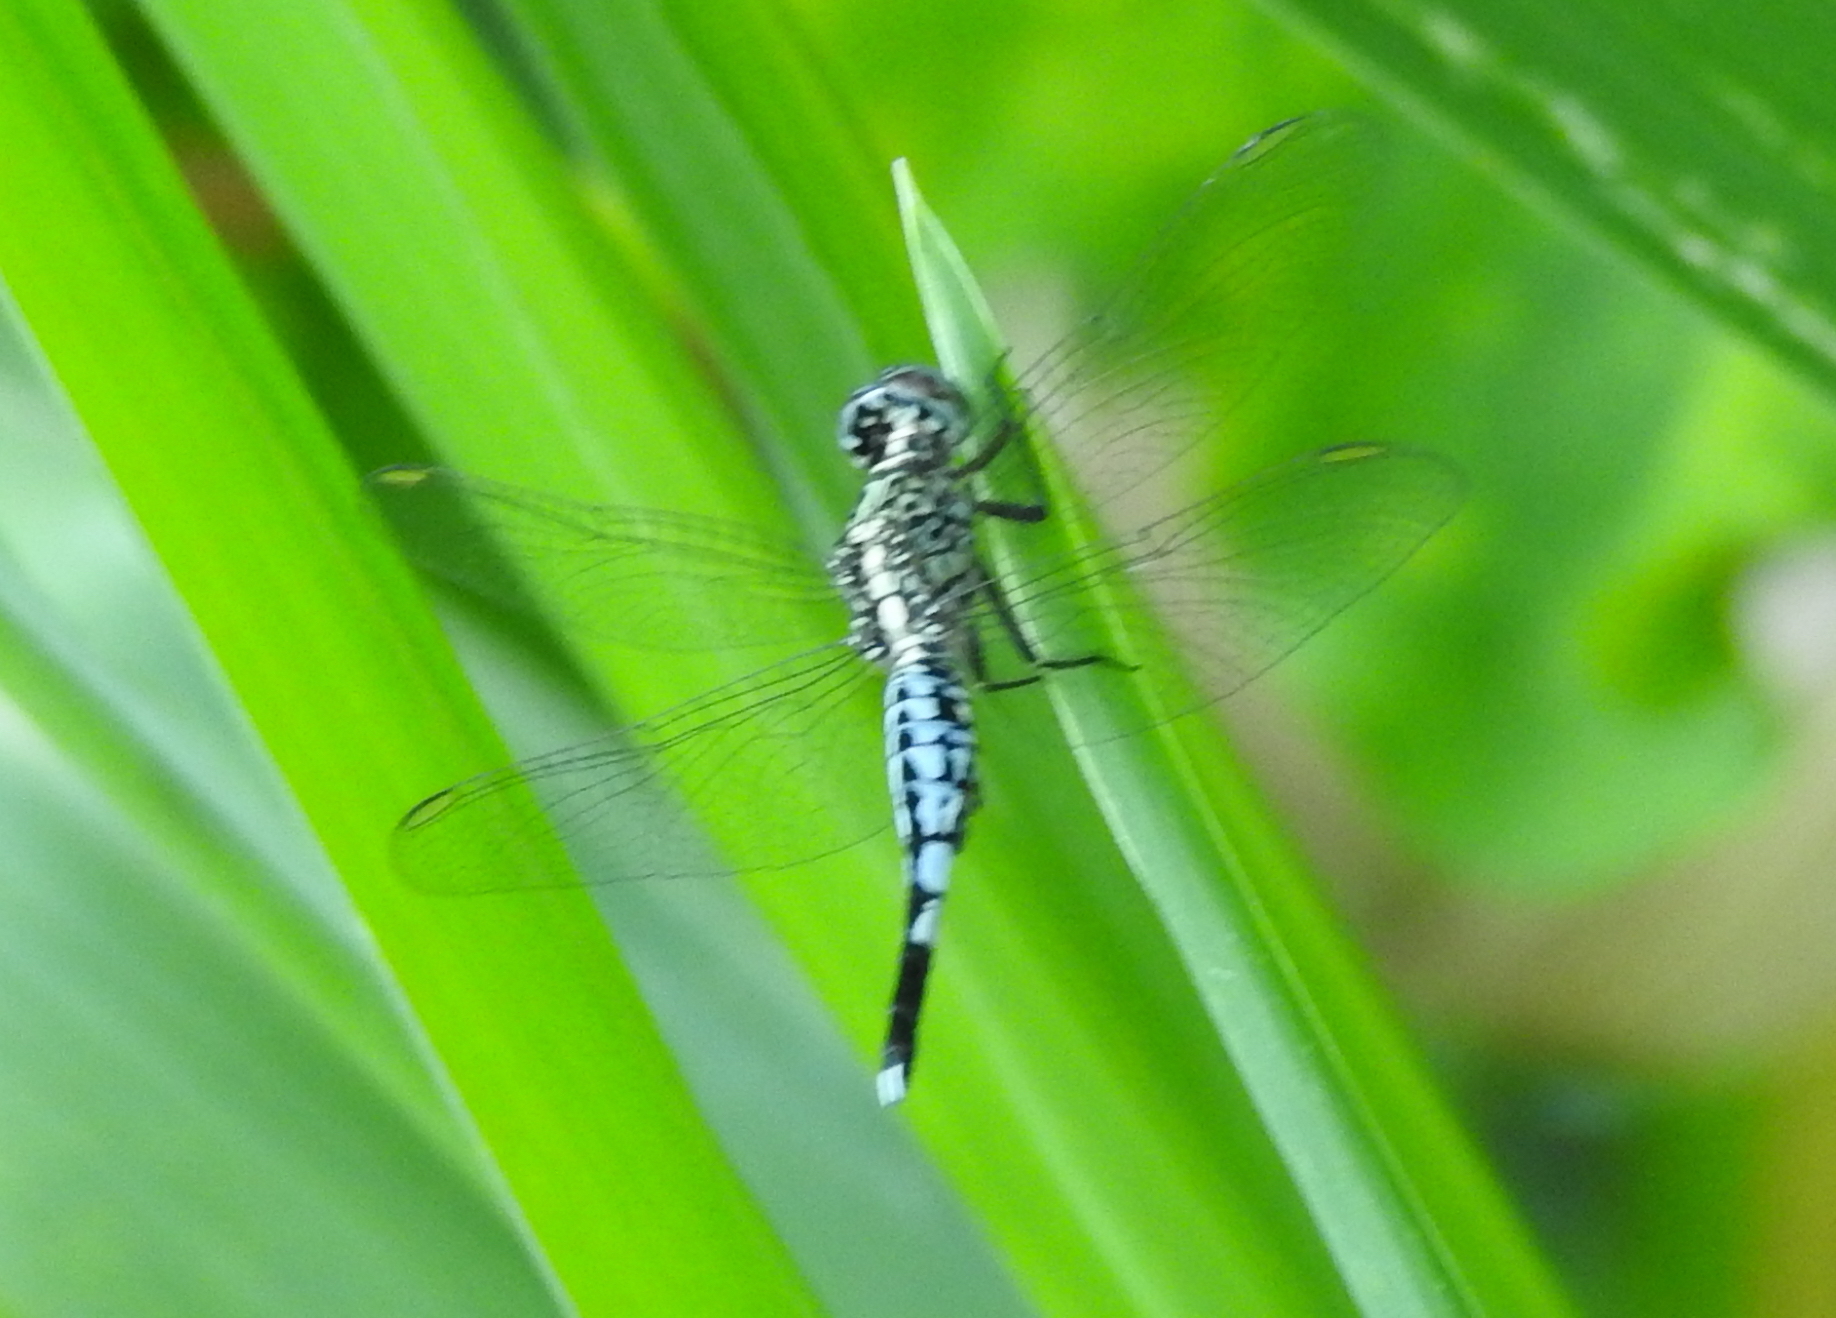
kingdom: Animalia
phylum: Arthropoda
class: Insecta
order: Odonata
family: Libellulidae
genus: Acisoma
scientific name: Acisoma panorpoides
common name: Asian pintail
